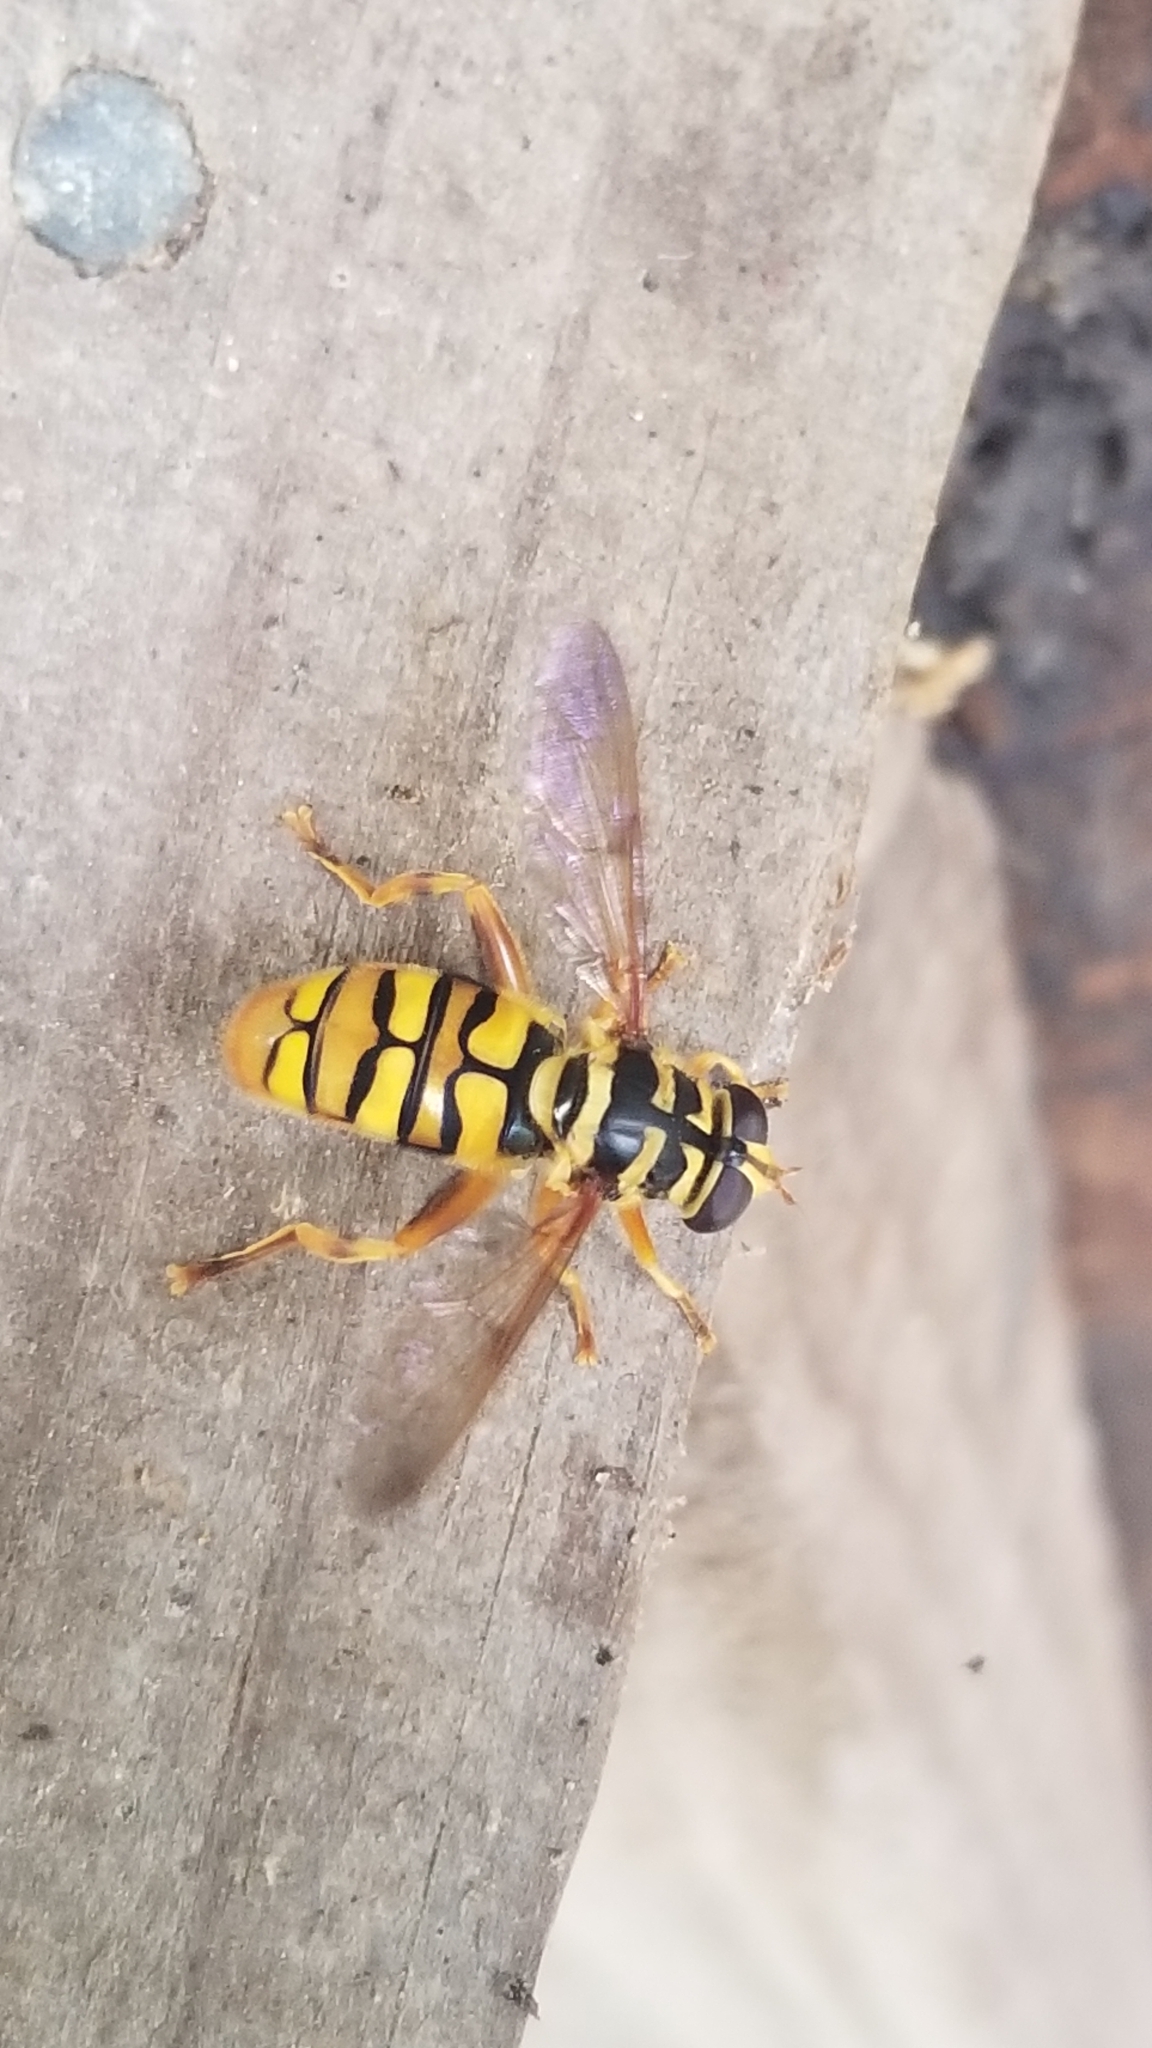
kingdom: Animalia
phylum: Arthropoda
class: Insecta
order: Diptera
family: Syrphidae
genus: Milesia
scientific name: Milesia virginiensis
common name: Virginia giant
